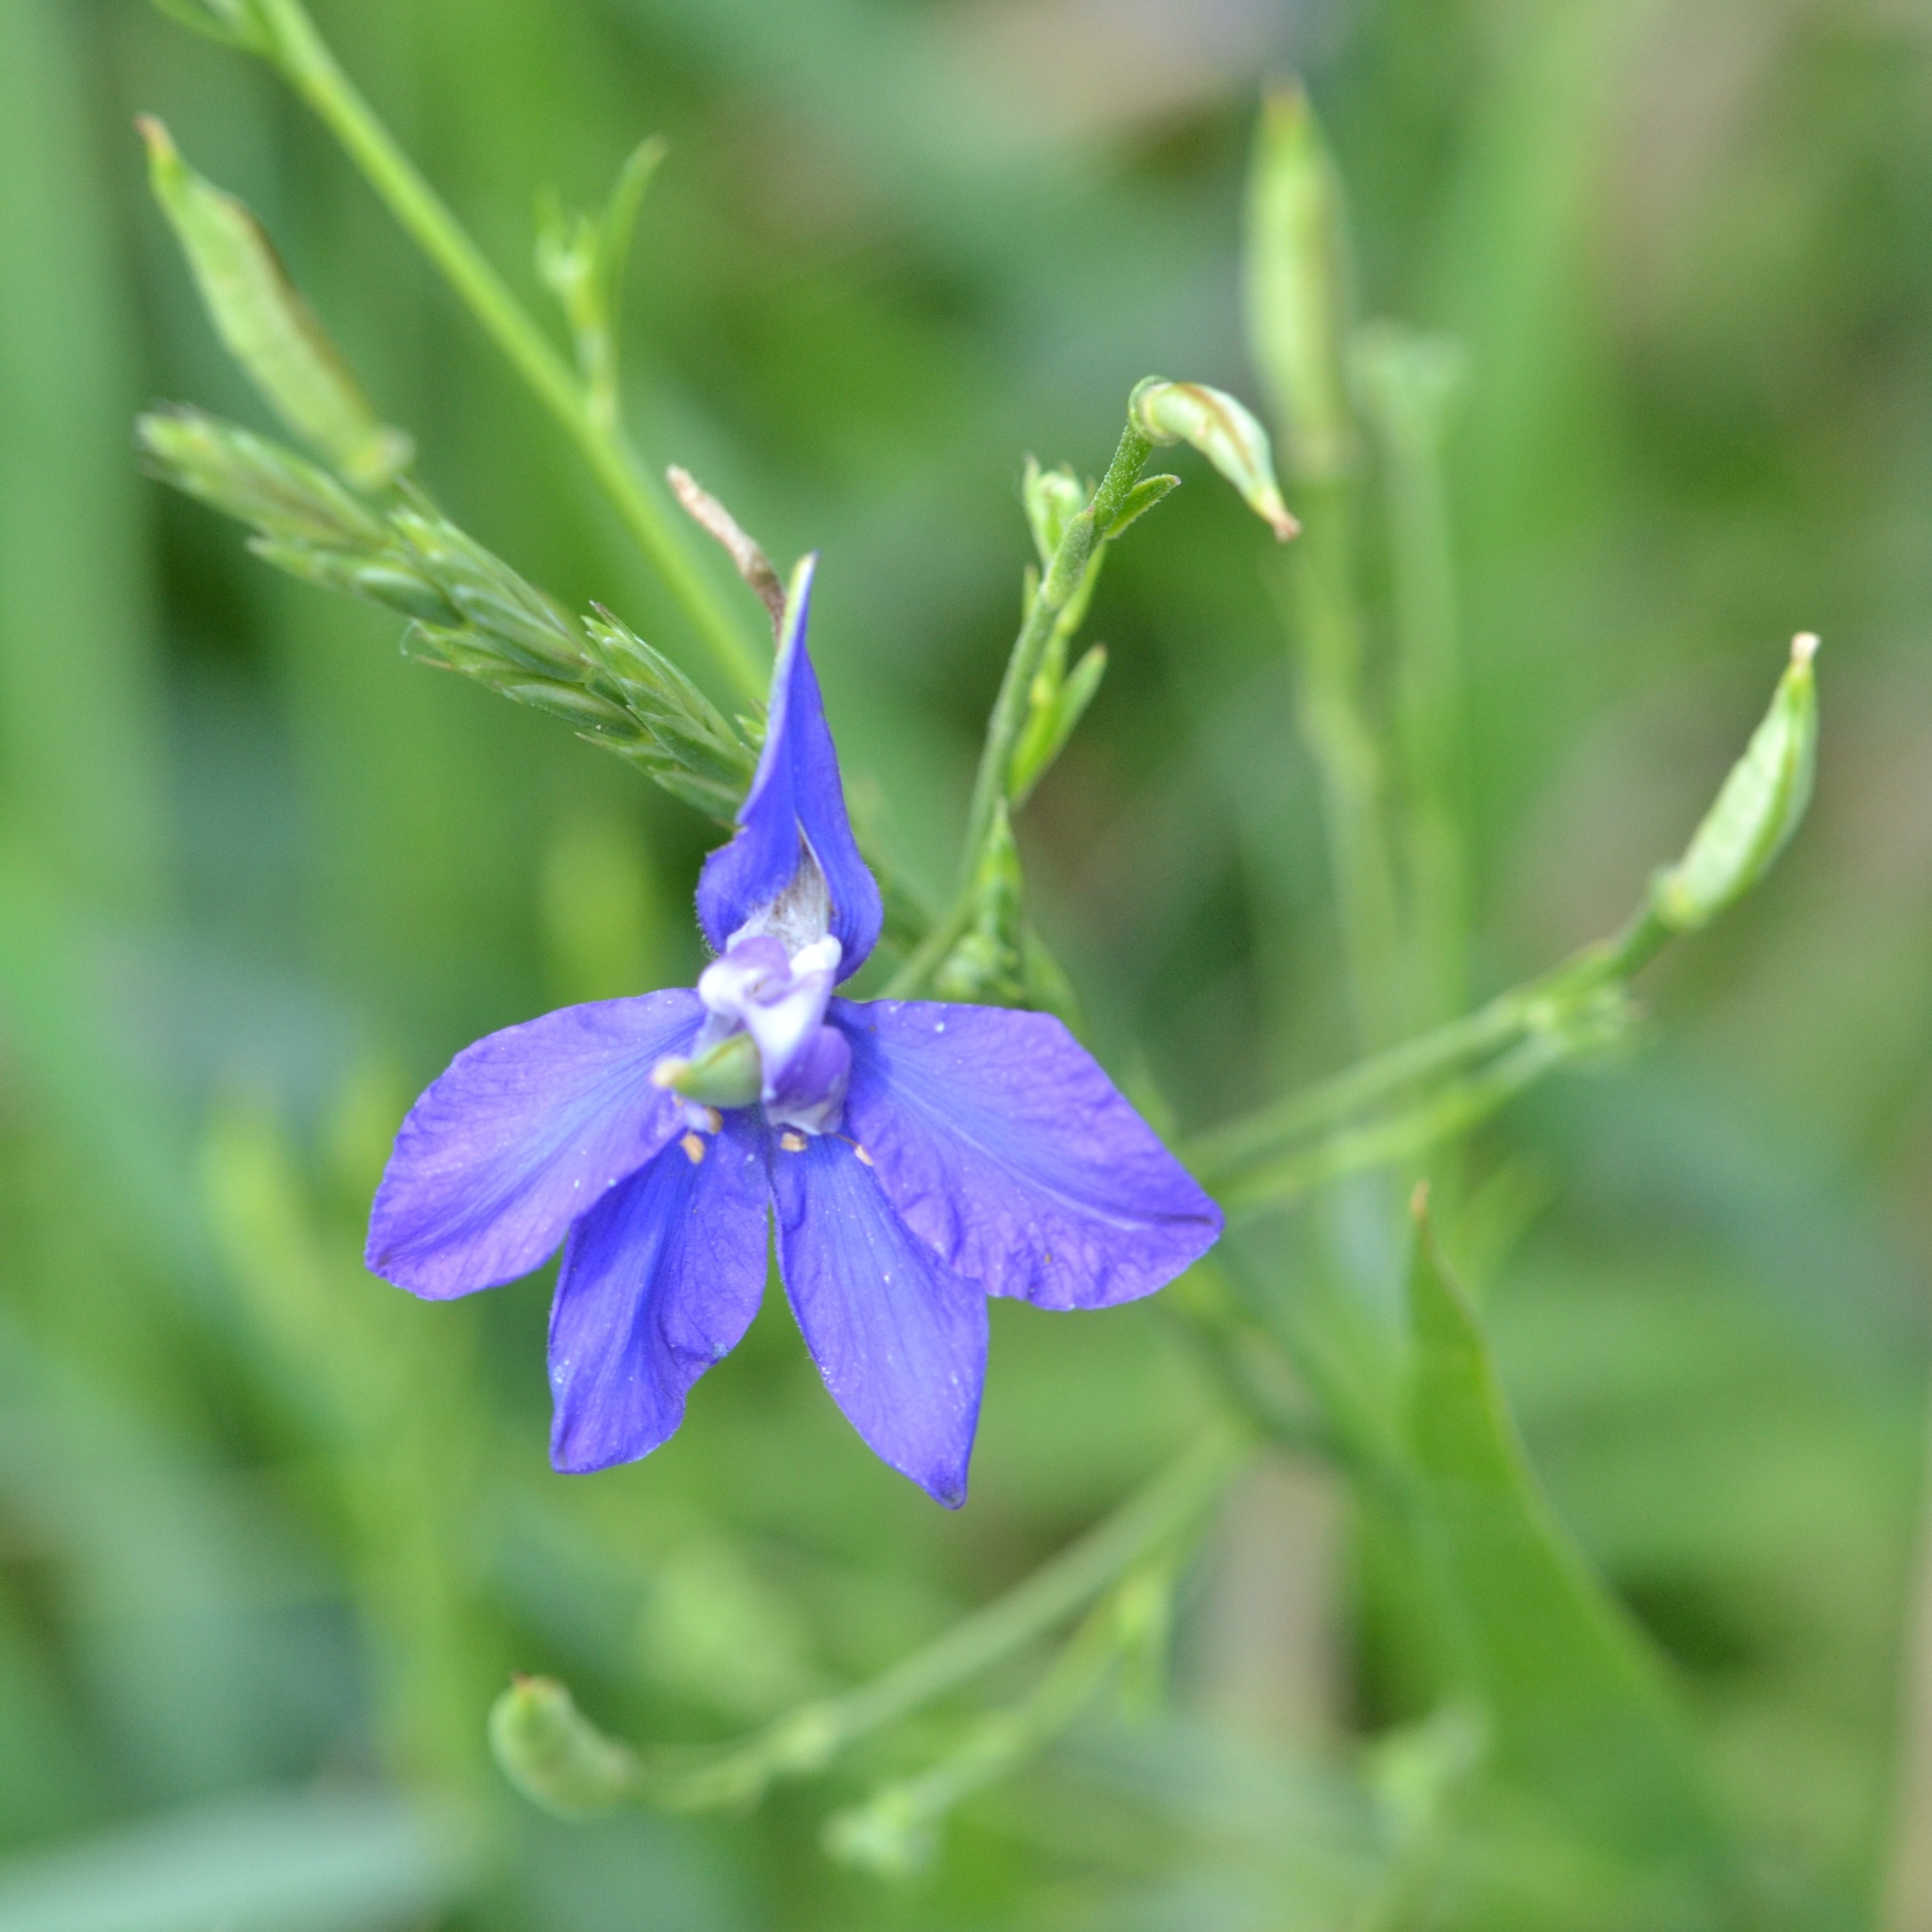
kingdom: Plantae
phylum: Tracheophyta
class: Magnoliopsida
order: Ranunculales
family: Ranunculaceae
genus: Delphinium
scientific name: Delphinium consolida
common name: Branching larkspur
